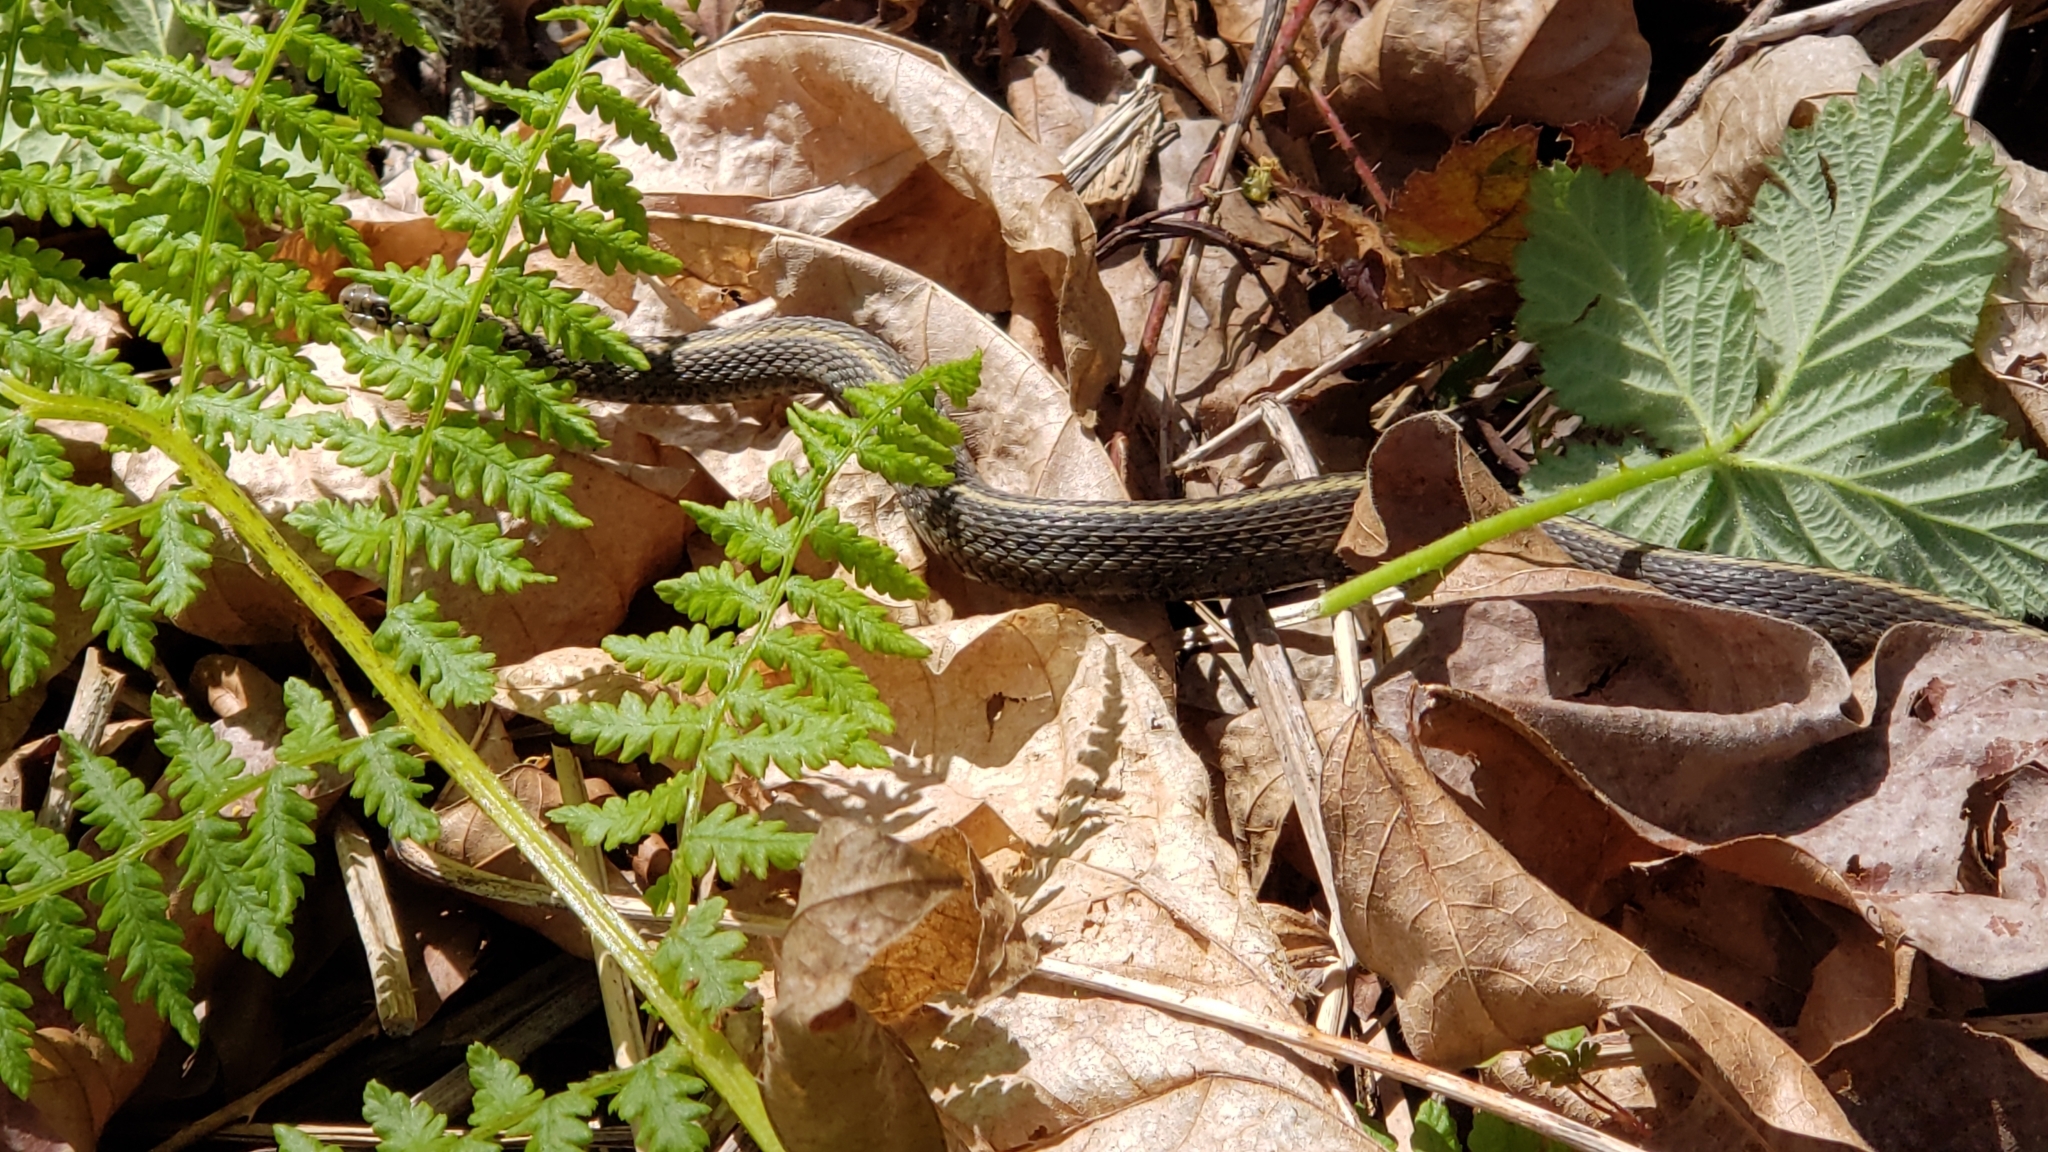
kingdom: Animalia
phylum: Chordata
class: Squamata
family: Colubridae
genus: Thamnophis
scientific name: Thamnophis ordinoides
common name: Northwestern garter snake
